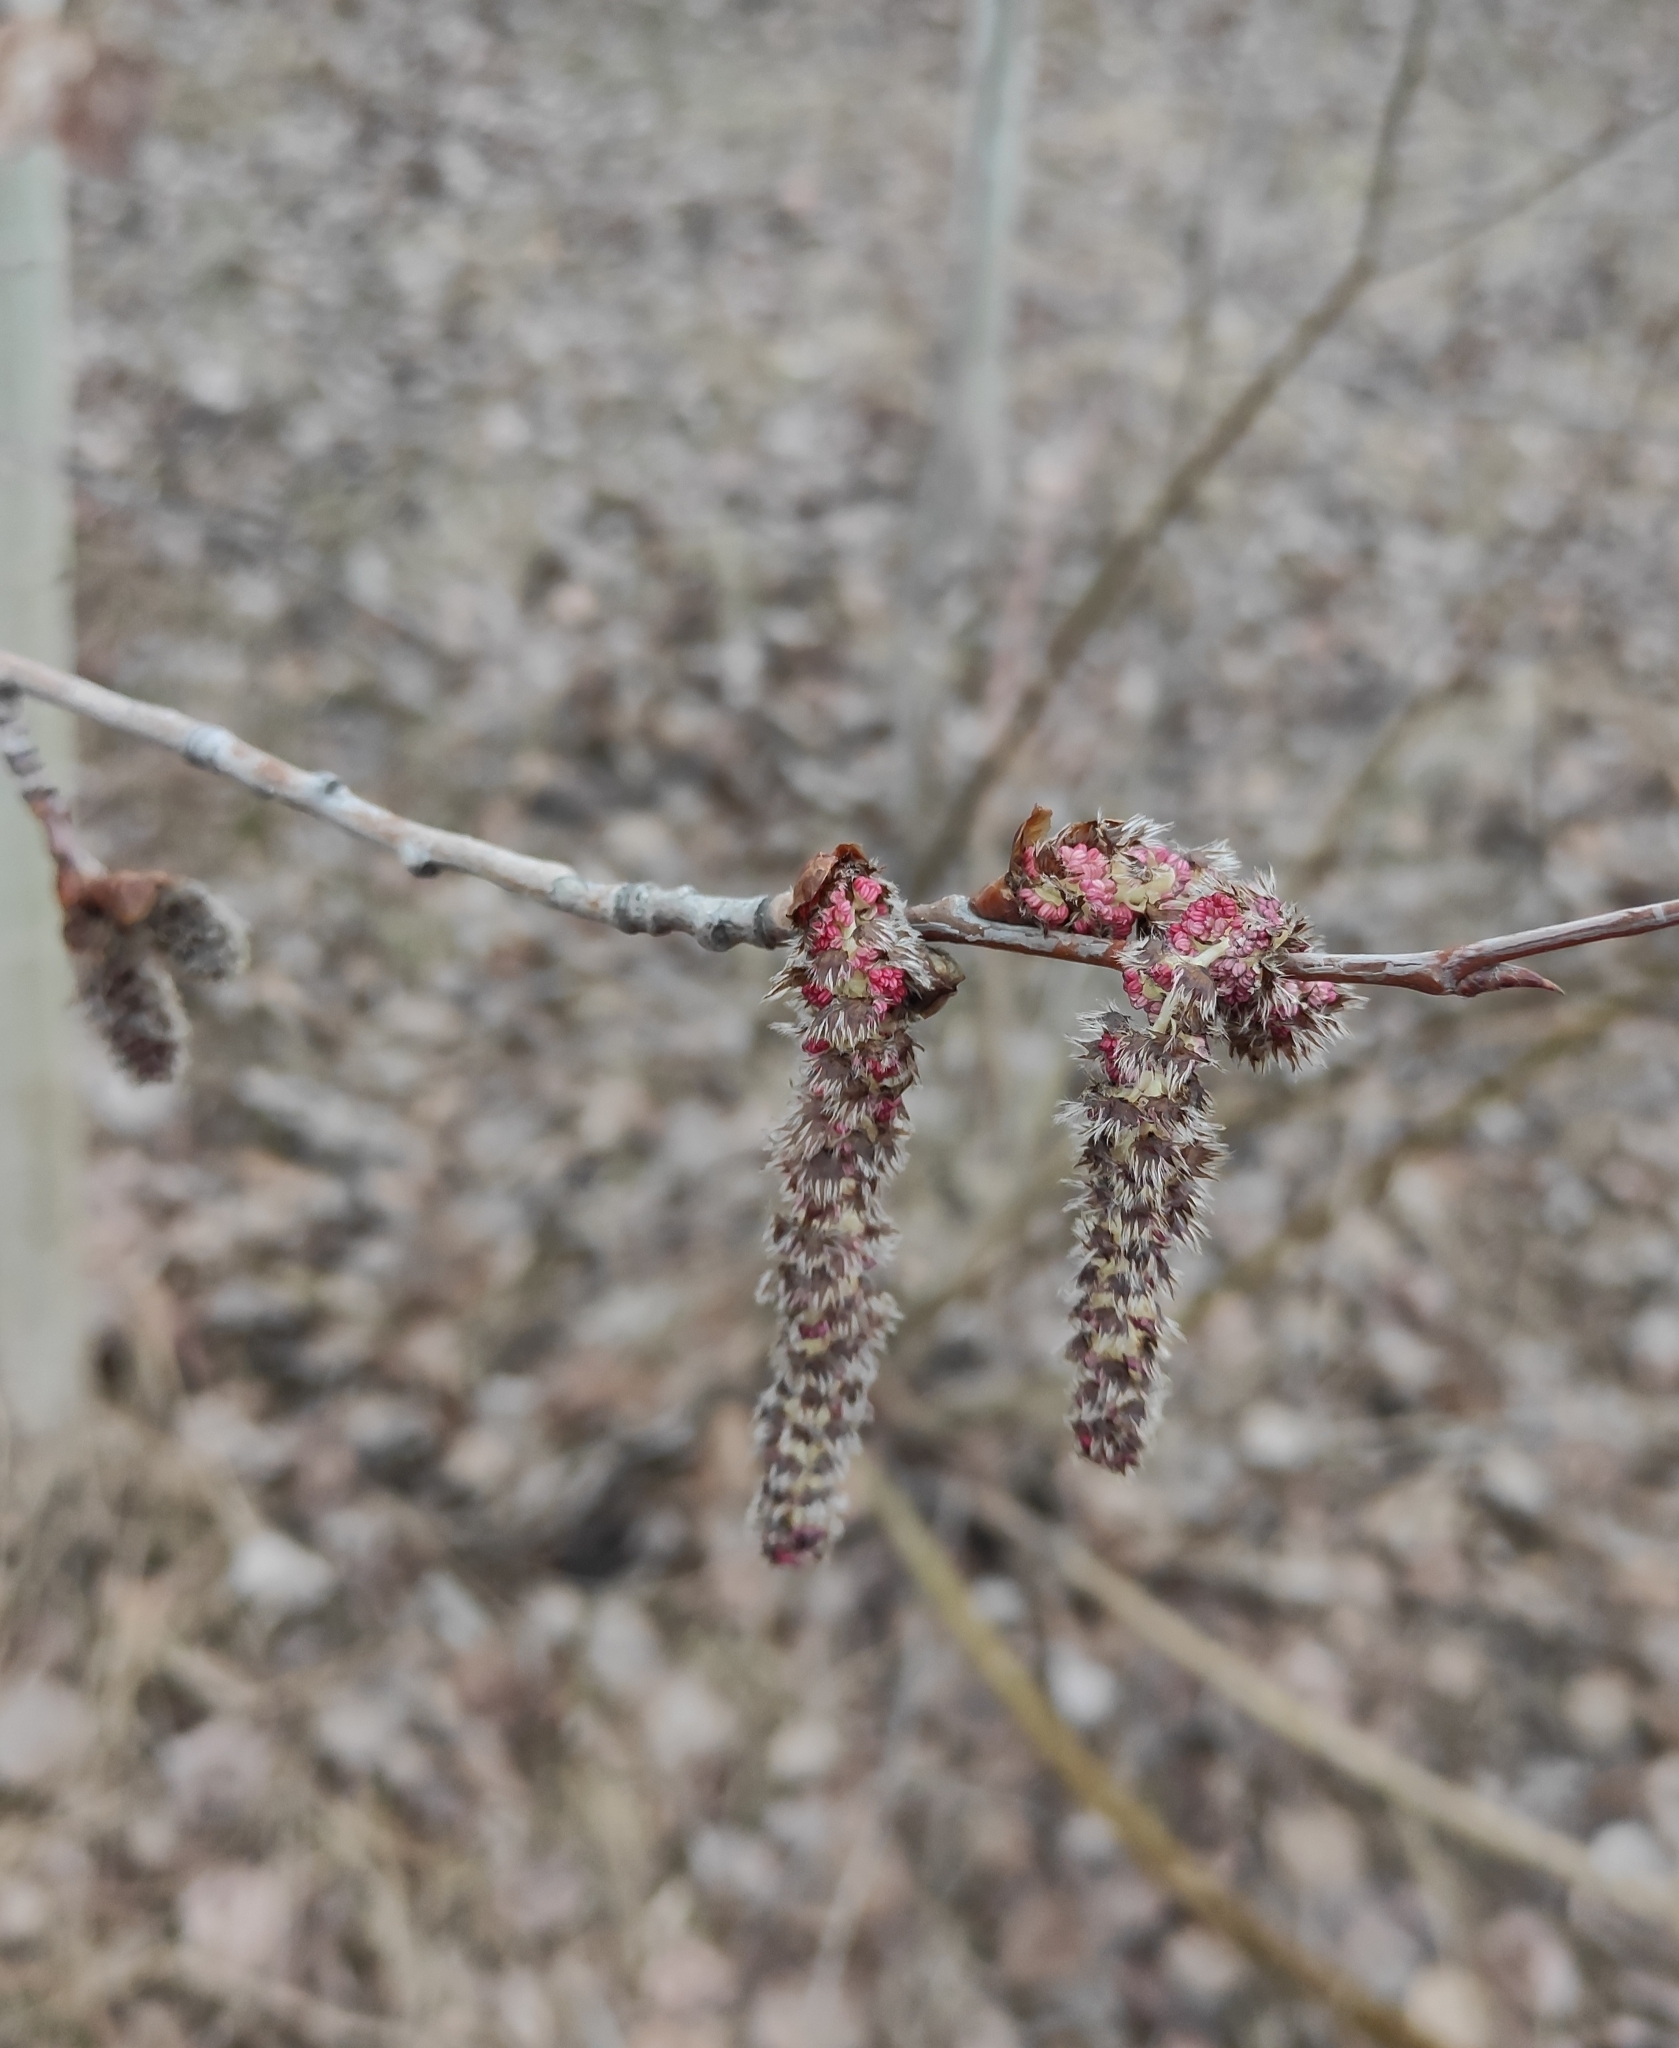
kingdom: Plantae
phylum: Tracheophyta
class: Magnoliopsida
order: Malpighiales
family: Salicaceae
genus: Populus
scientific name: Populus tremula
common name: European aspen
